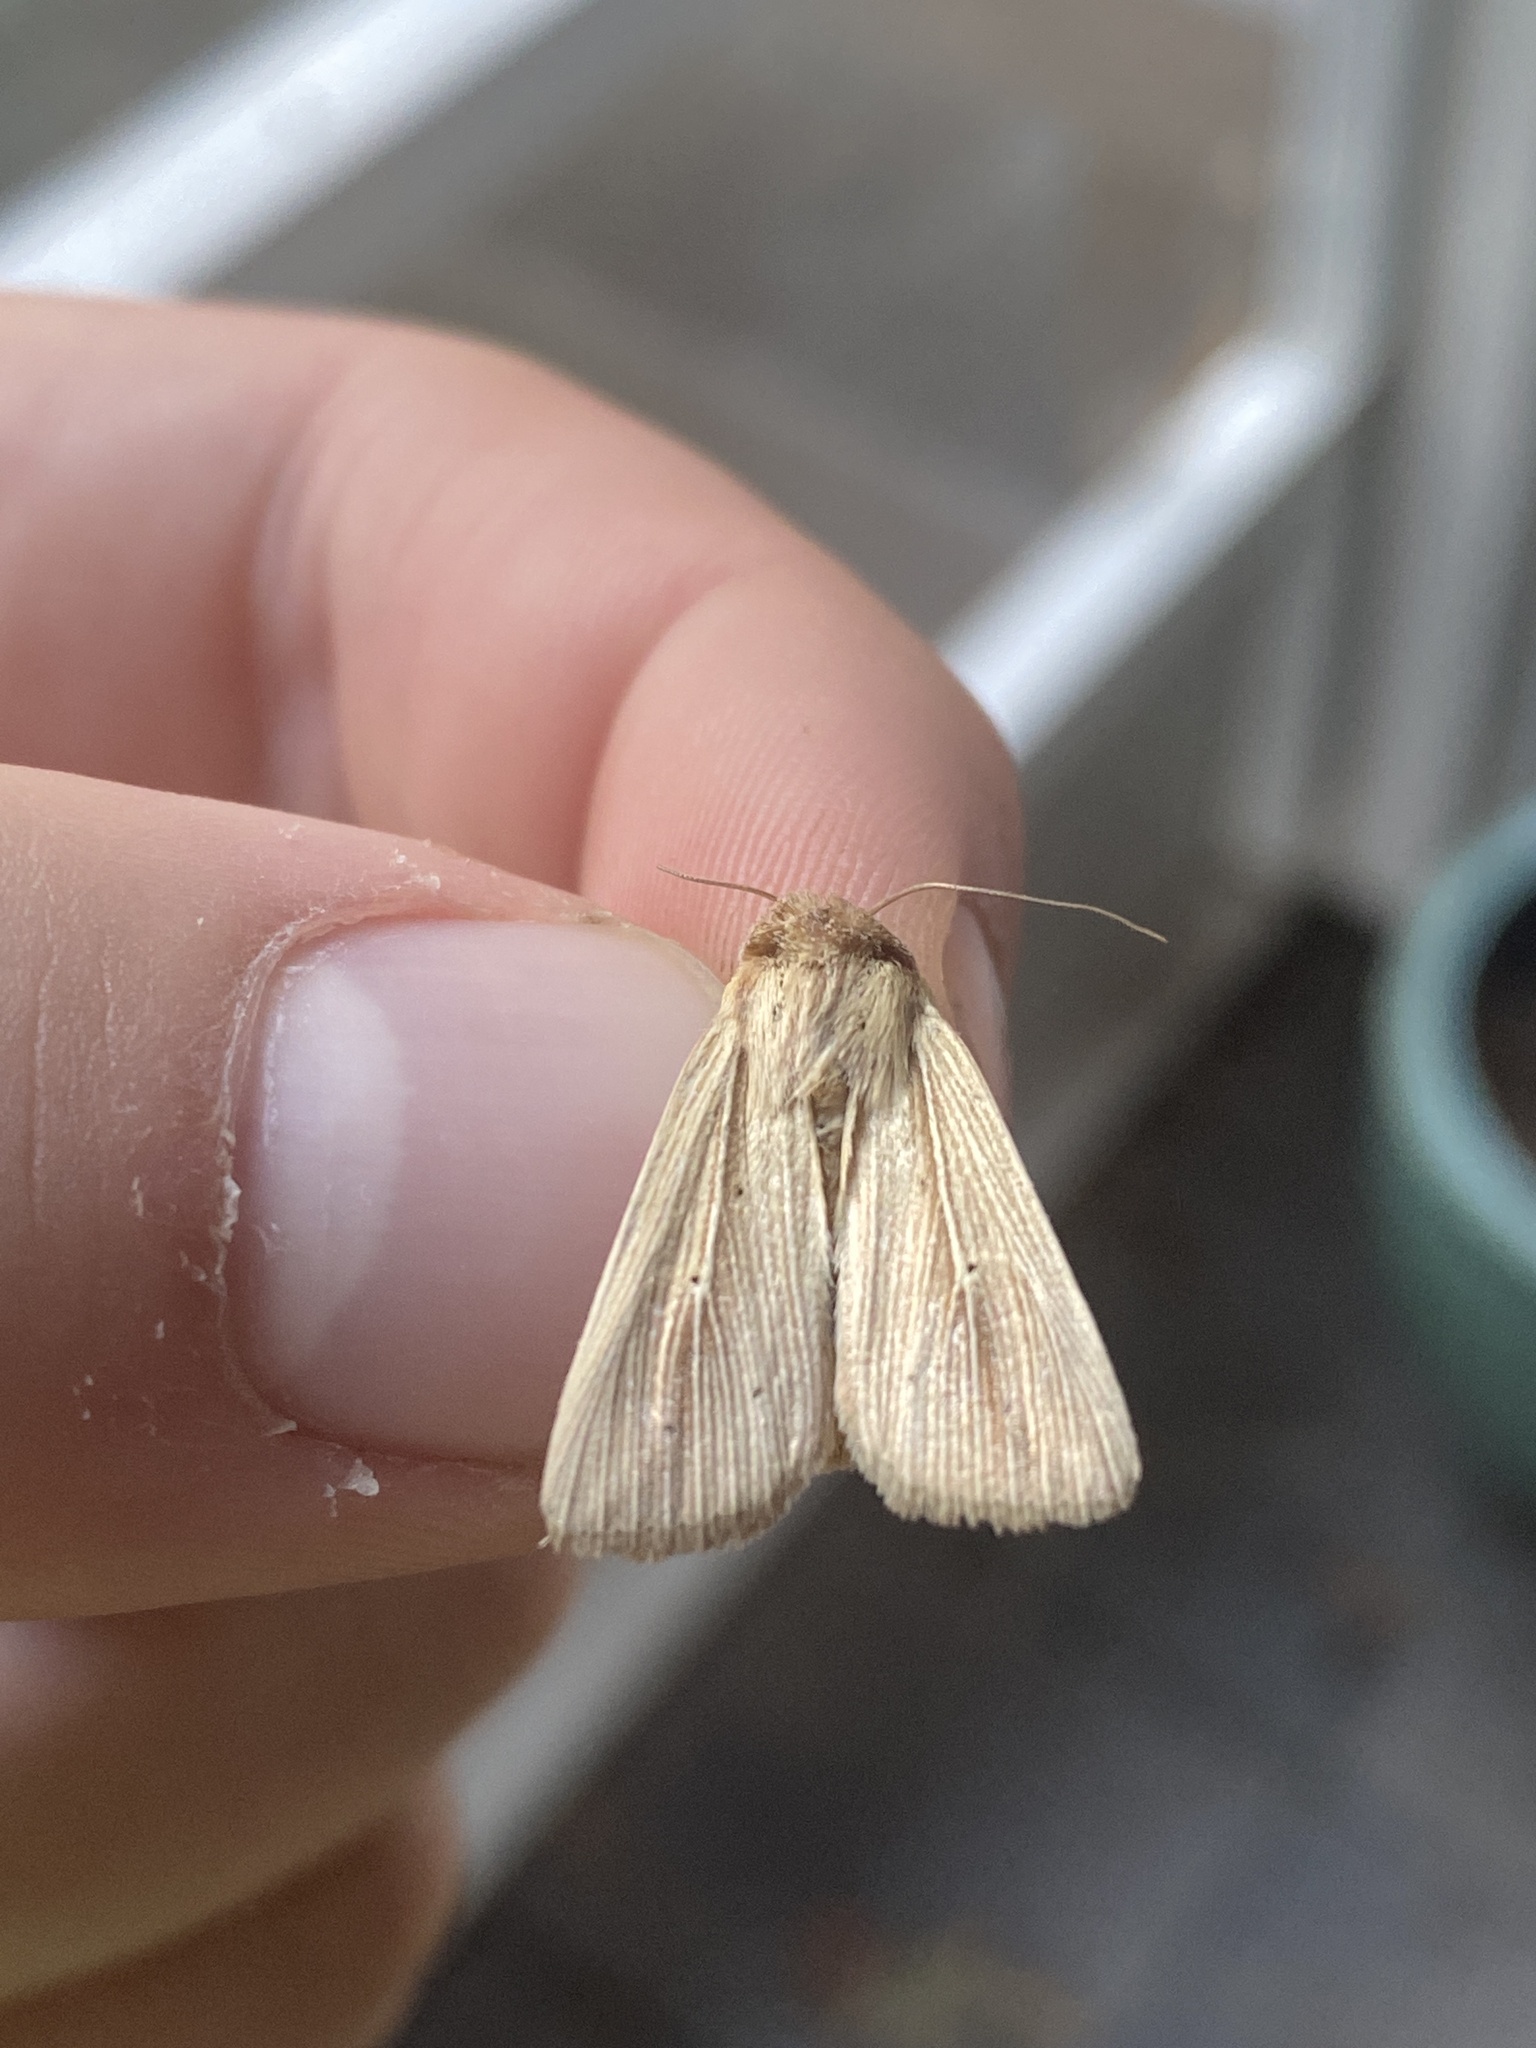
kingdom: Animalia
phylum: Arthropoda
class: Insecta
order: Lepidoptera
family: Noctuidae
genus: Leucania
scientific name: Leucania adjuta
